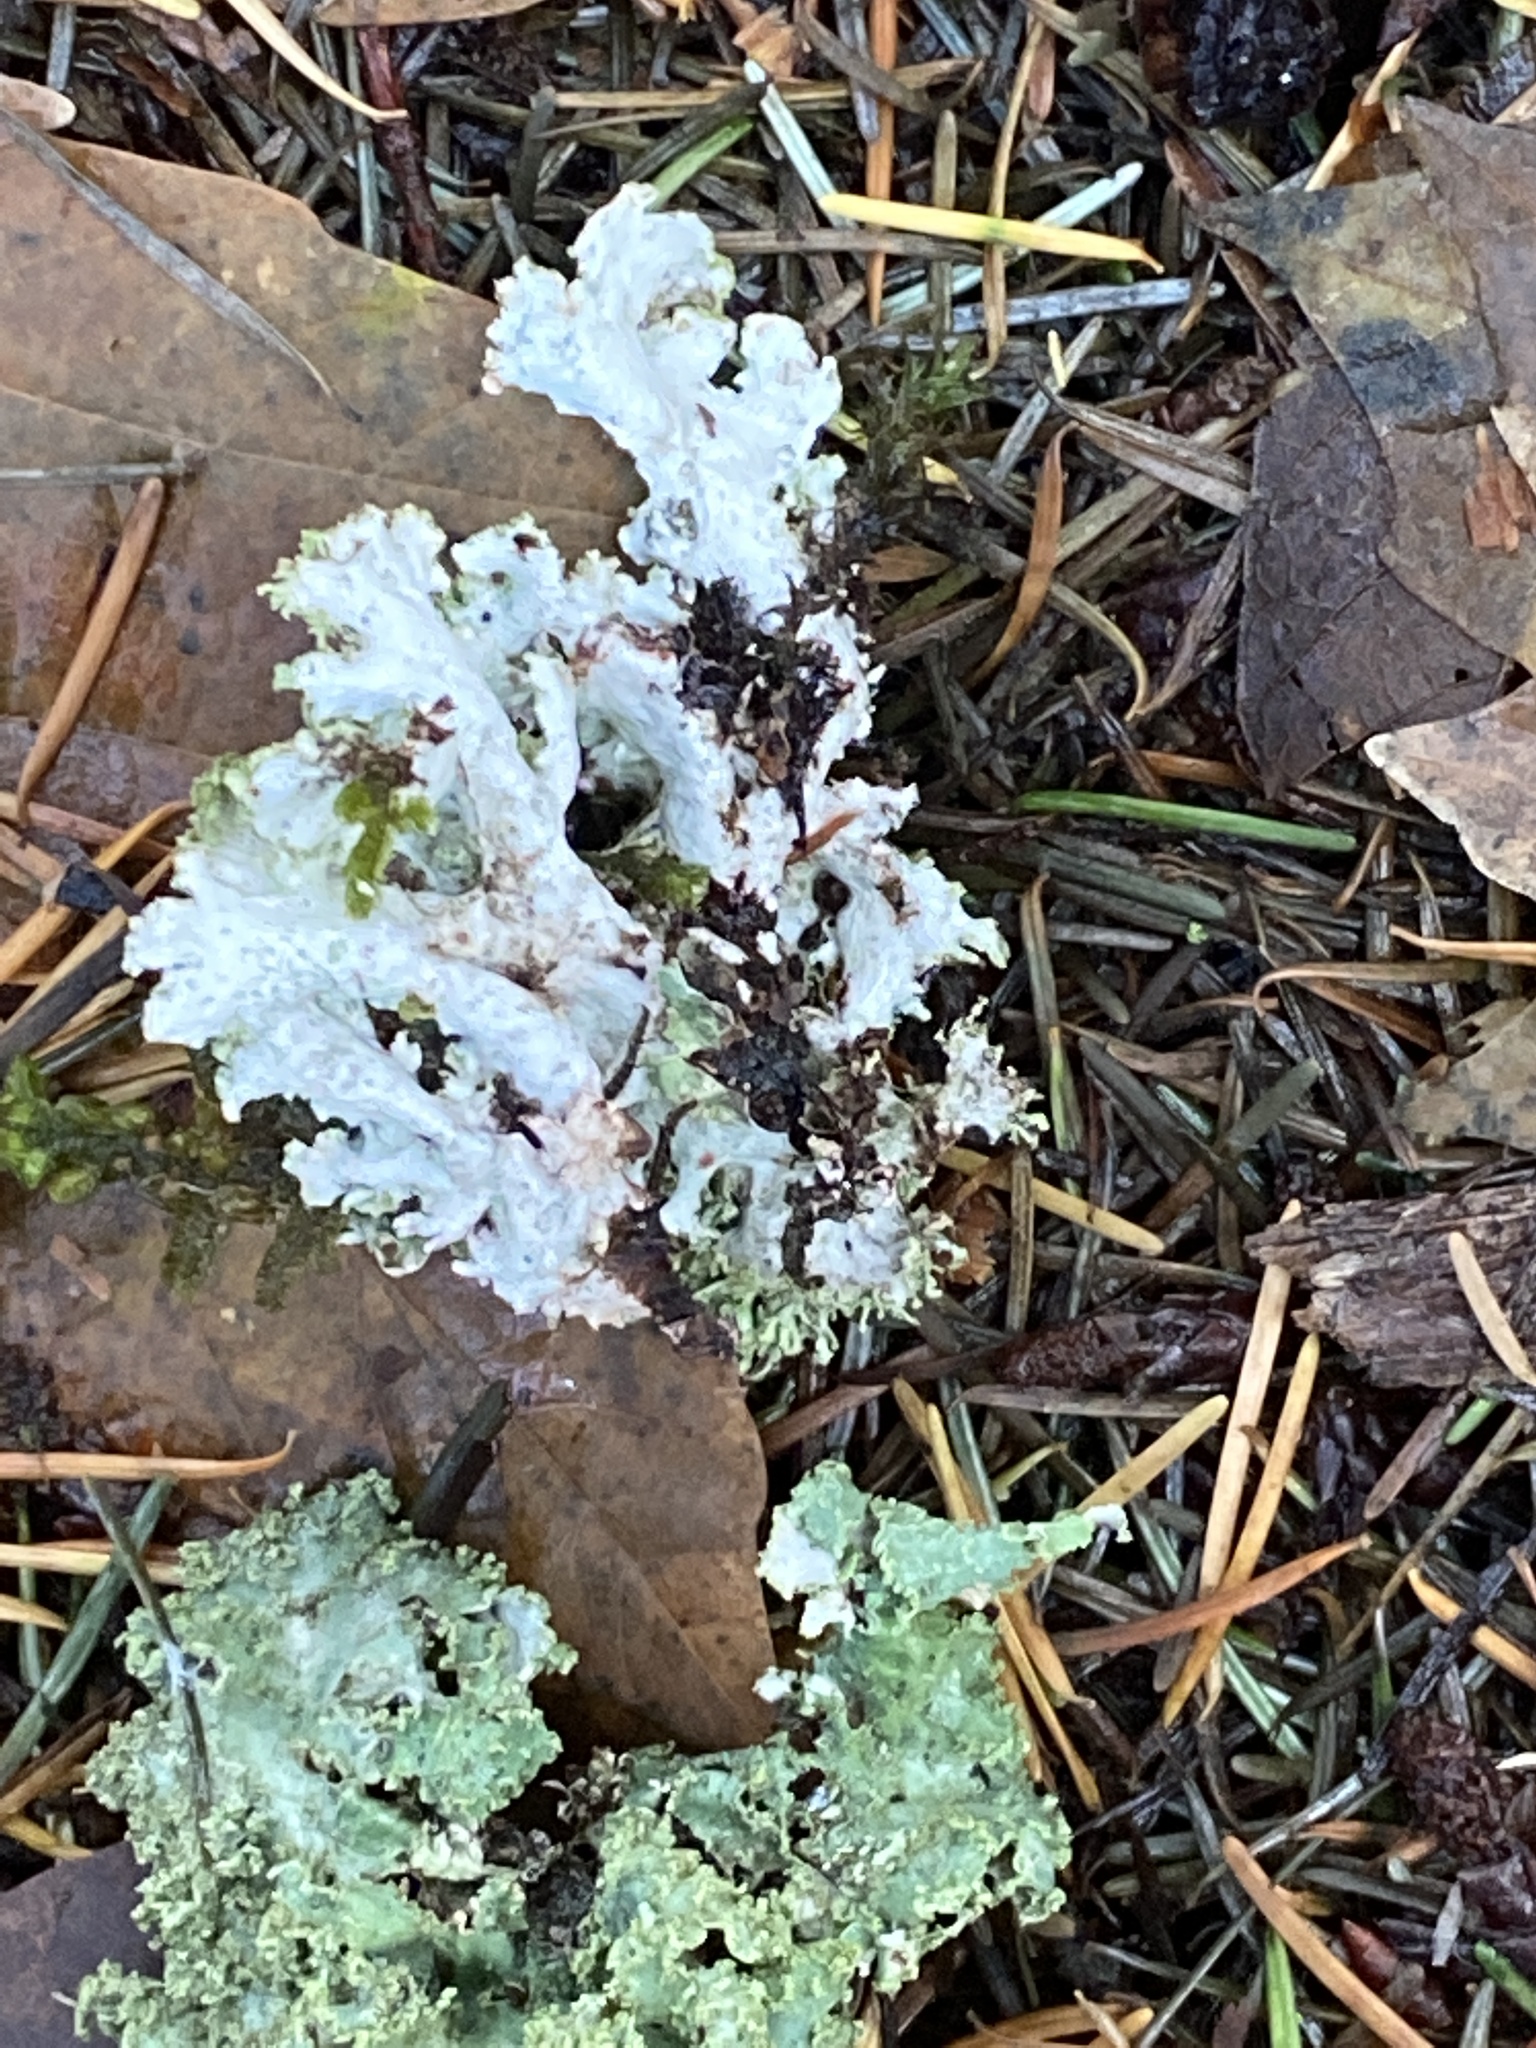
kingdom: Fungi
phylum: Ascomycota
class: Lecanoromycetes
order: Lecanorales
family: Parmeliaceae
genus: Platismatia
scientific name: Platismatia glauca
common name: Varied rag lichen
